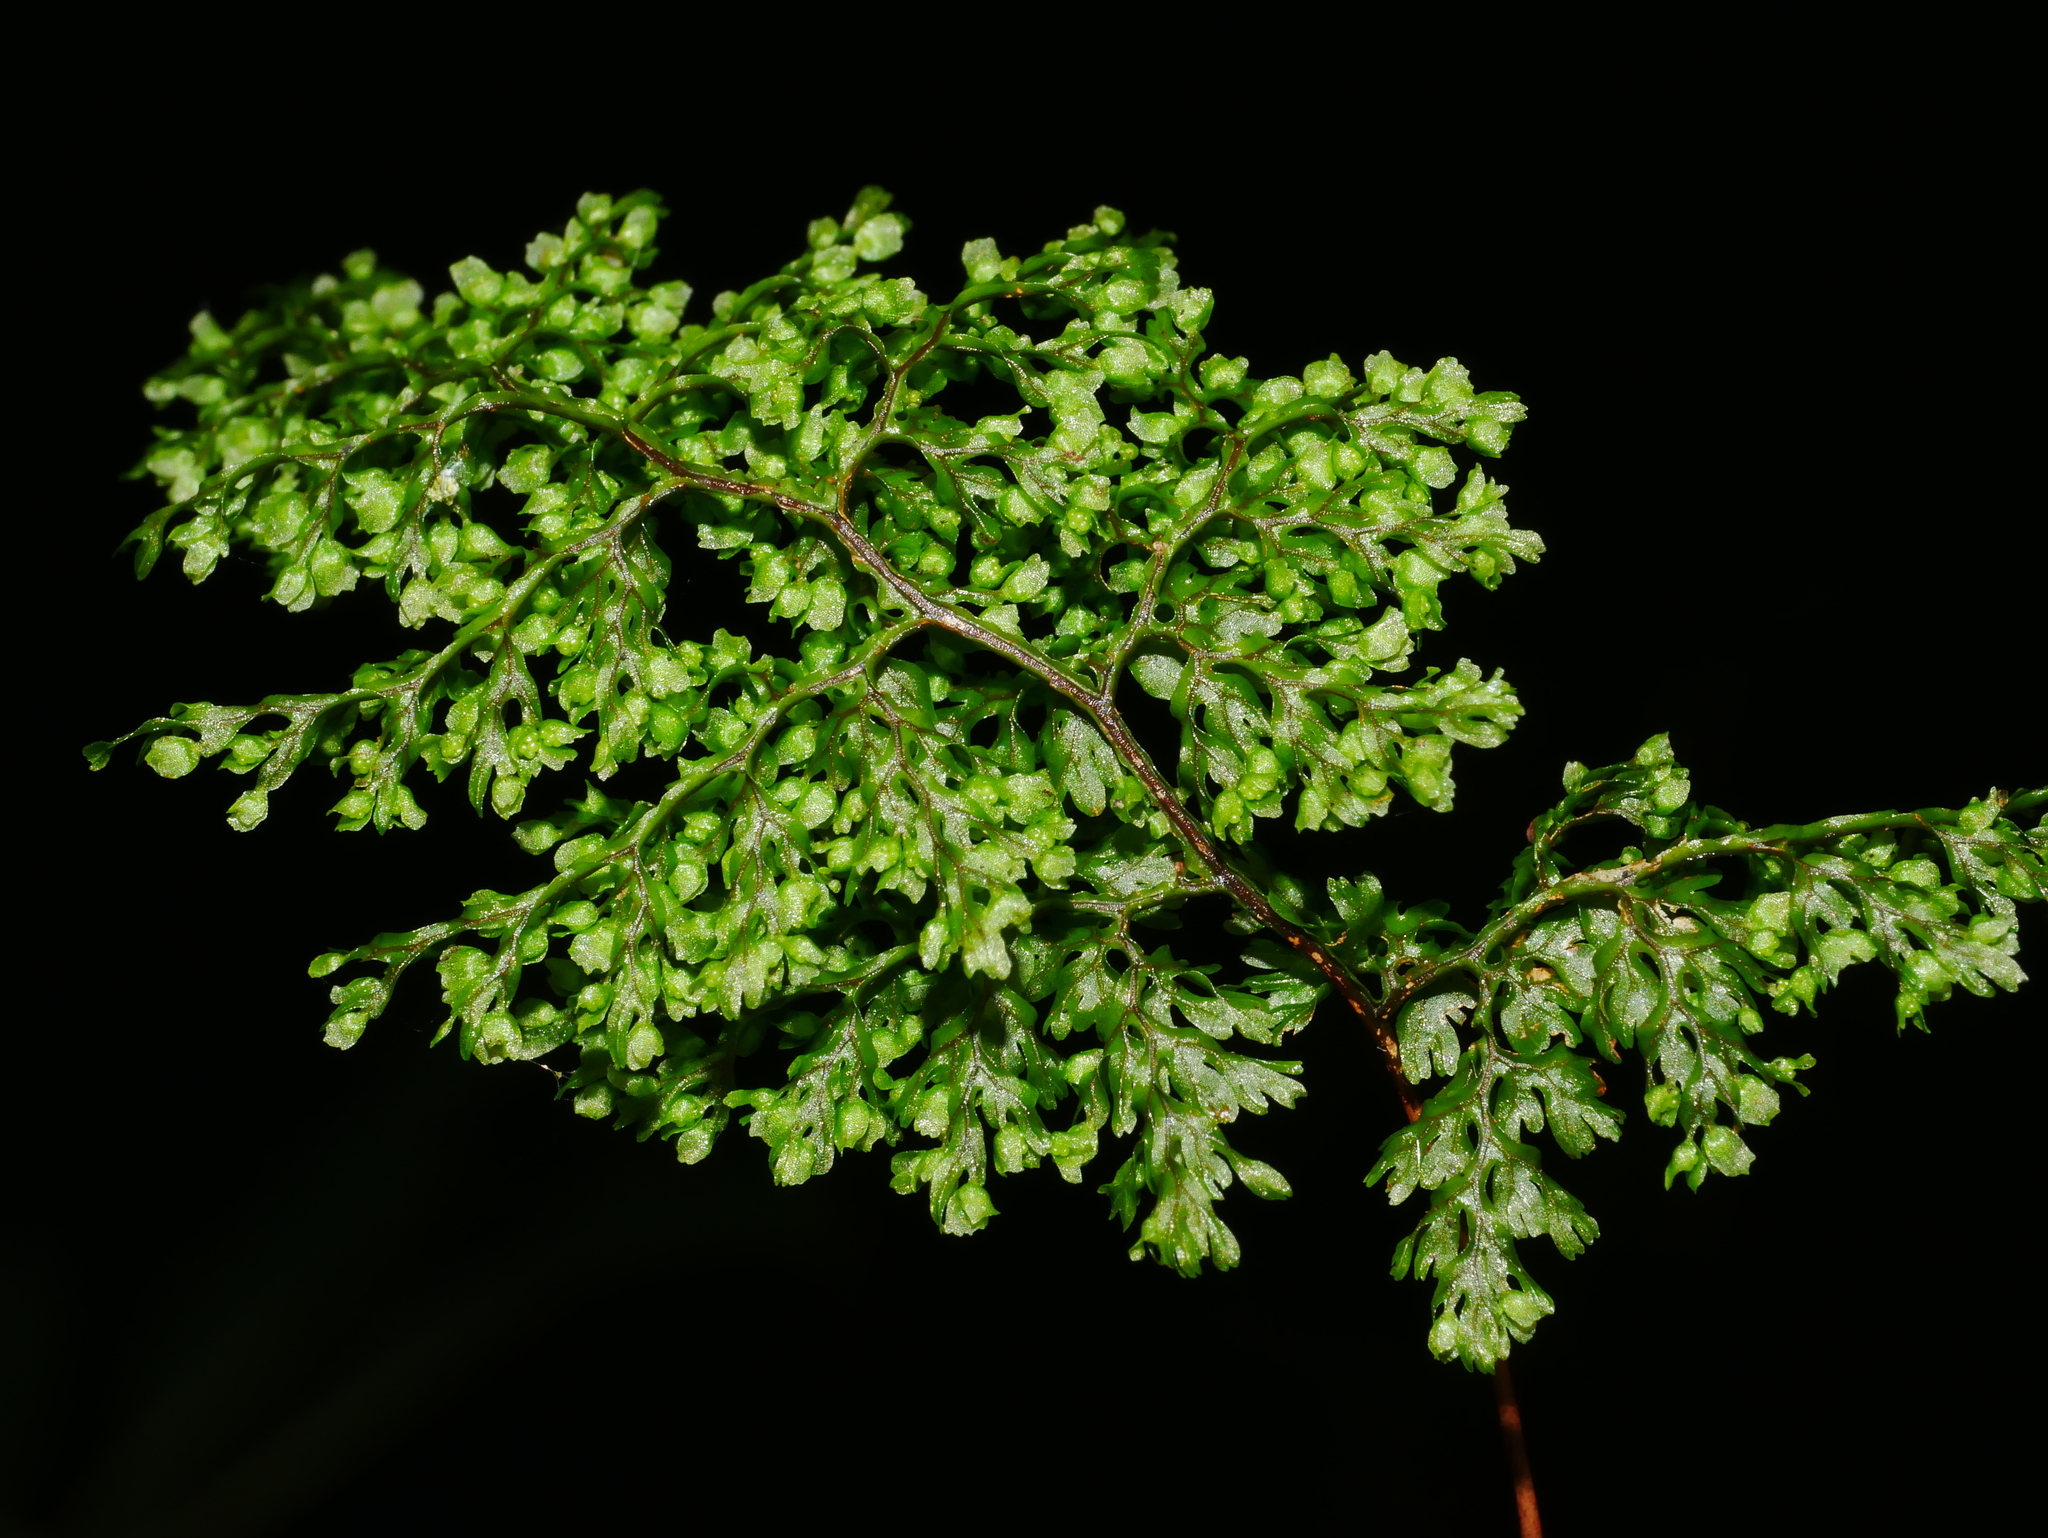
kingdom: Plantae
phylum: Tracheophyta
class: Polypodiopsida
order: Hymenophyllales
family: Hymenophyllaceae
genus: Hymenophyllum
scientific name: Hymenophyllum punctisorum
